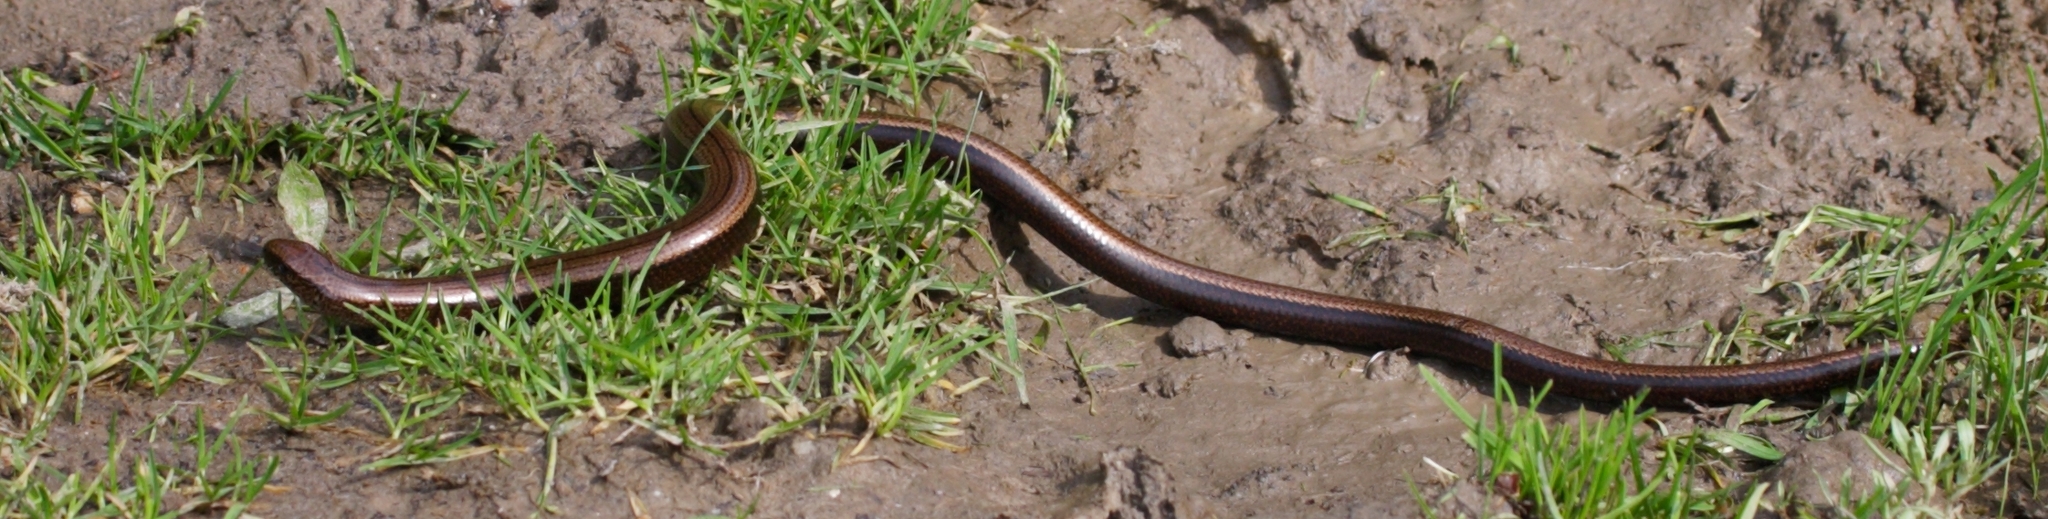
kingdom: Animalia
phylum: Chordata
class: Squamata
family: Anguidae
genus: Anguis
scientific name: Anguis fragilis
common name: Slow worm
